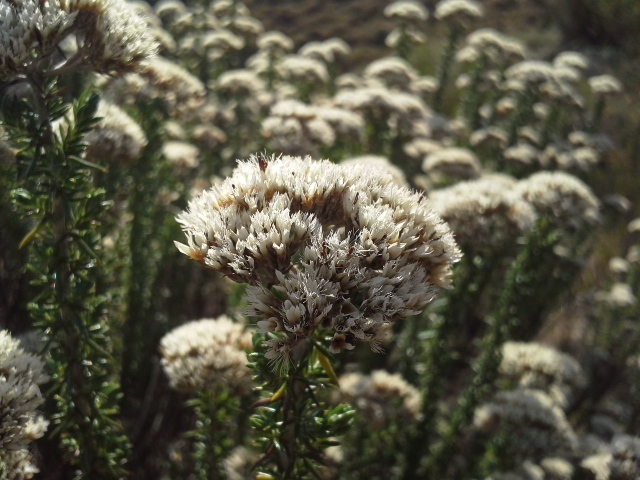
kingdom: Plantae
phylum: Tracheophyta
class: Magnoliopsida
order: Asterales
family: Asteraceae
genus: Metalasia
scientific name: Metalasia densa
